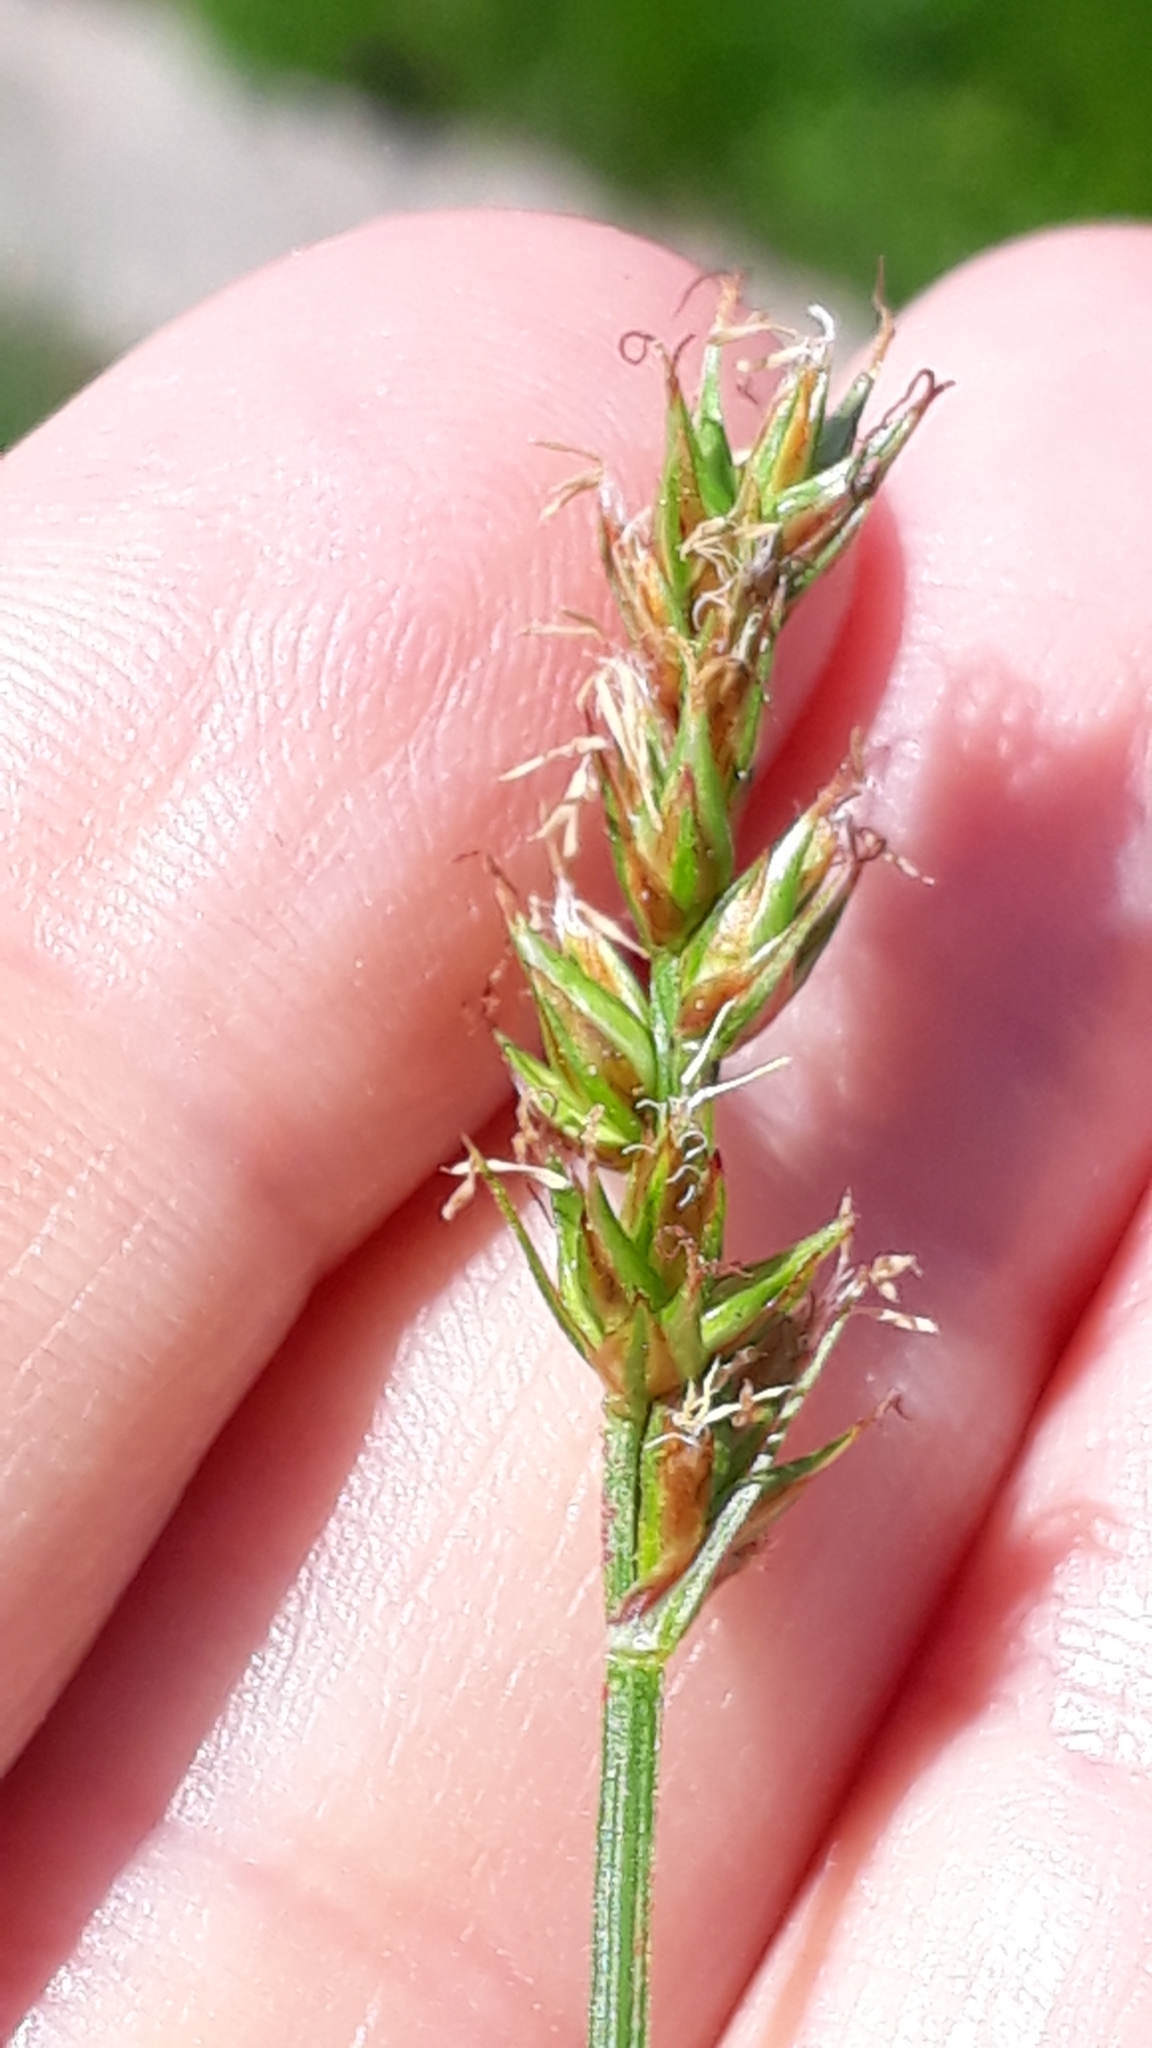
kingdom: Plantae
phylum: Tracheophyta
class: Liliopsida
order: Poales
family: Cyperaceae
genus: Carex
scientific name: Carex muricata
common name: Rough sedge
